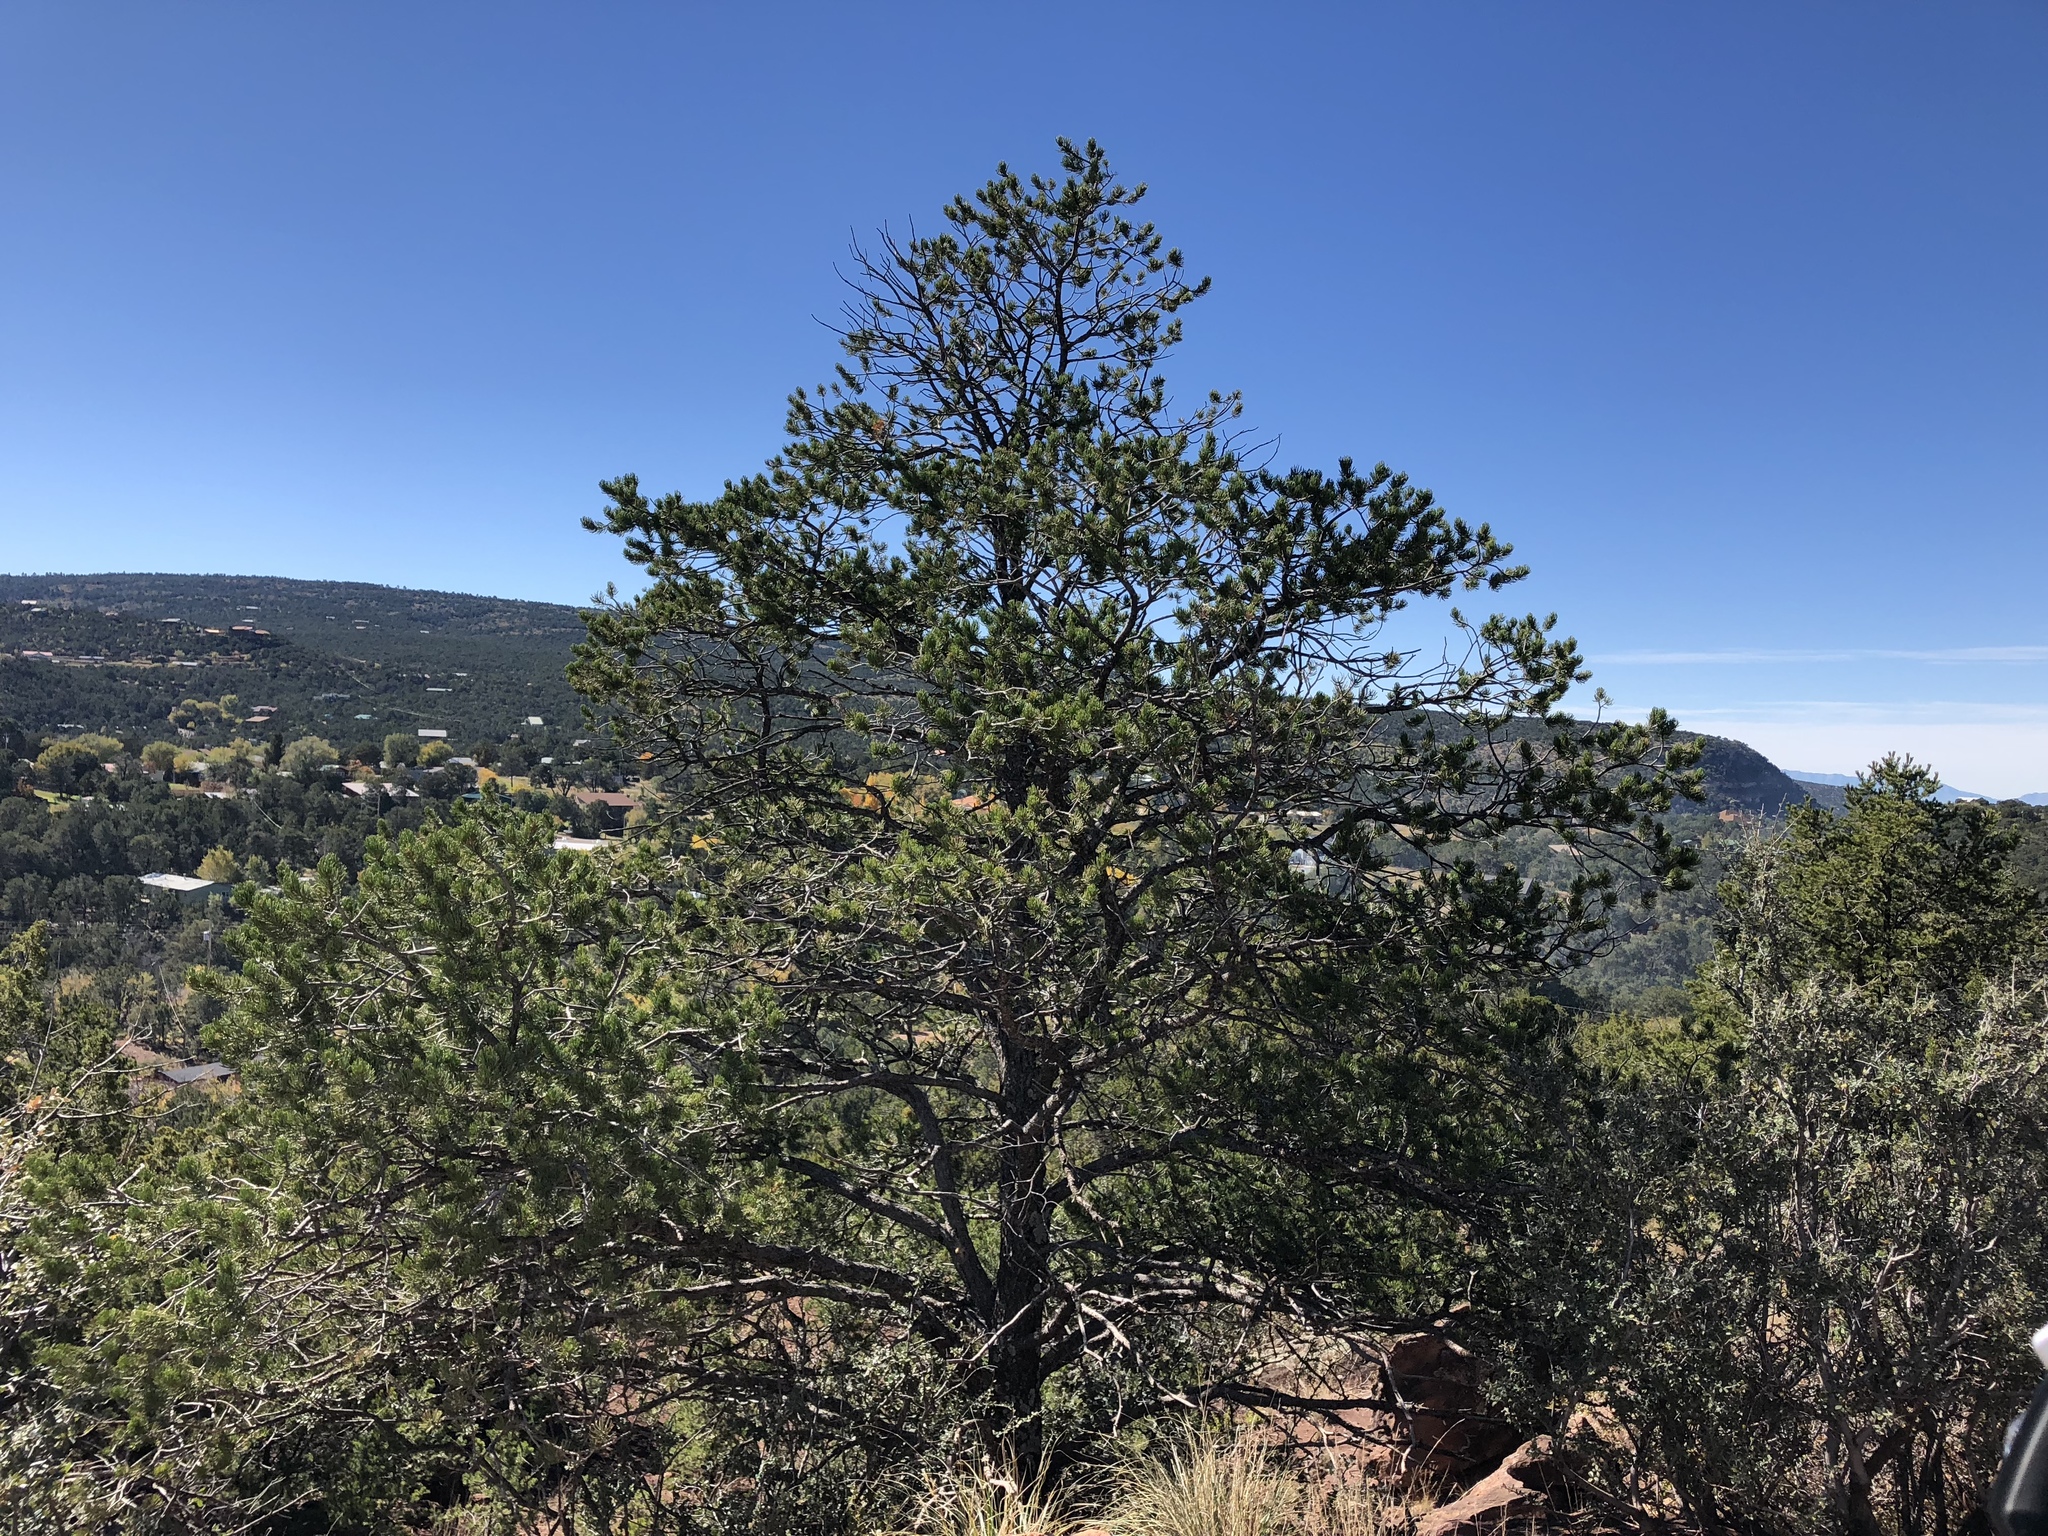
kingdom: Plantae
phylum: Tracheophyta
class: Pinopsida
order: Pinales
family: Pinaceae
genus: Pinus
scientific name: Pinus edulis
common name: Colorado pinyon
